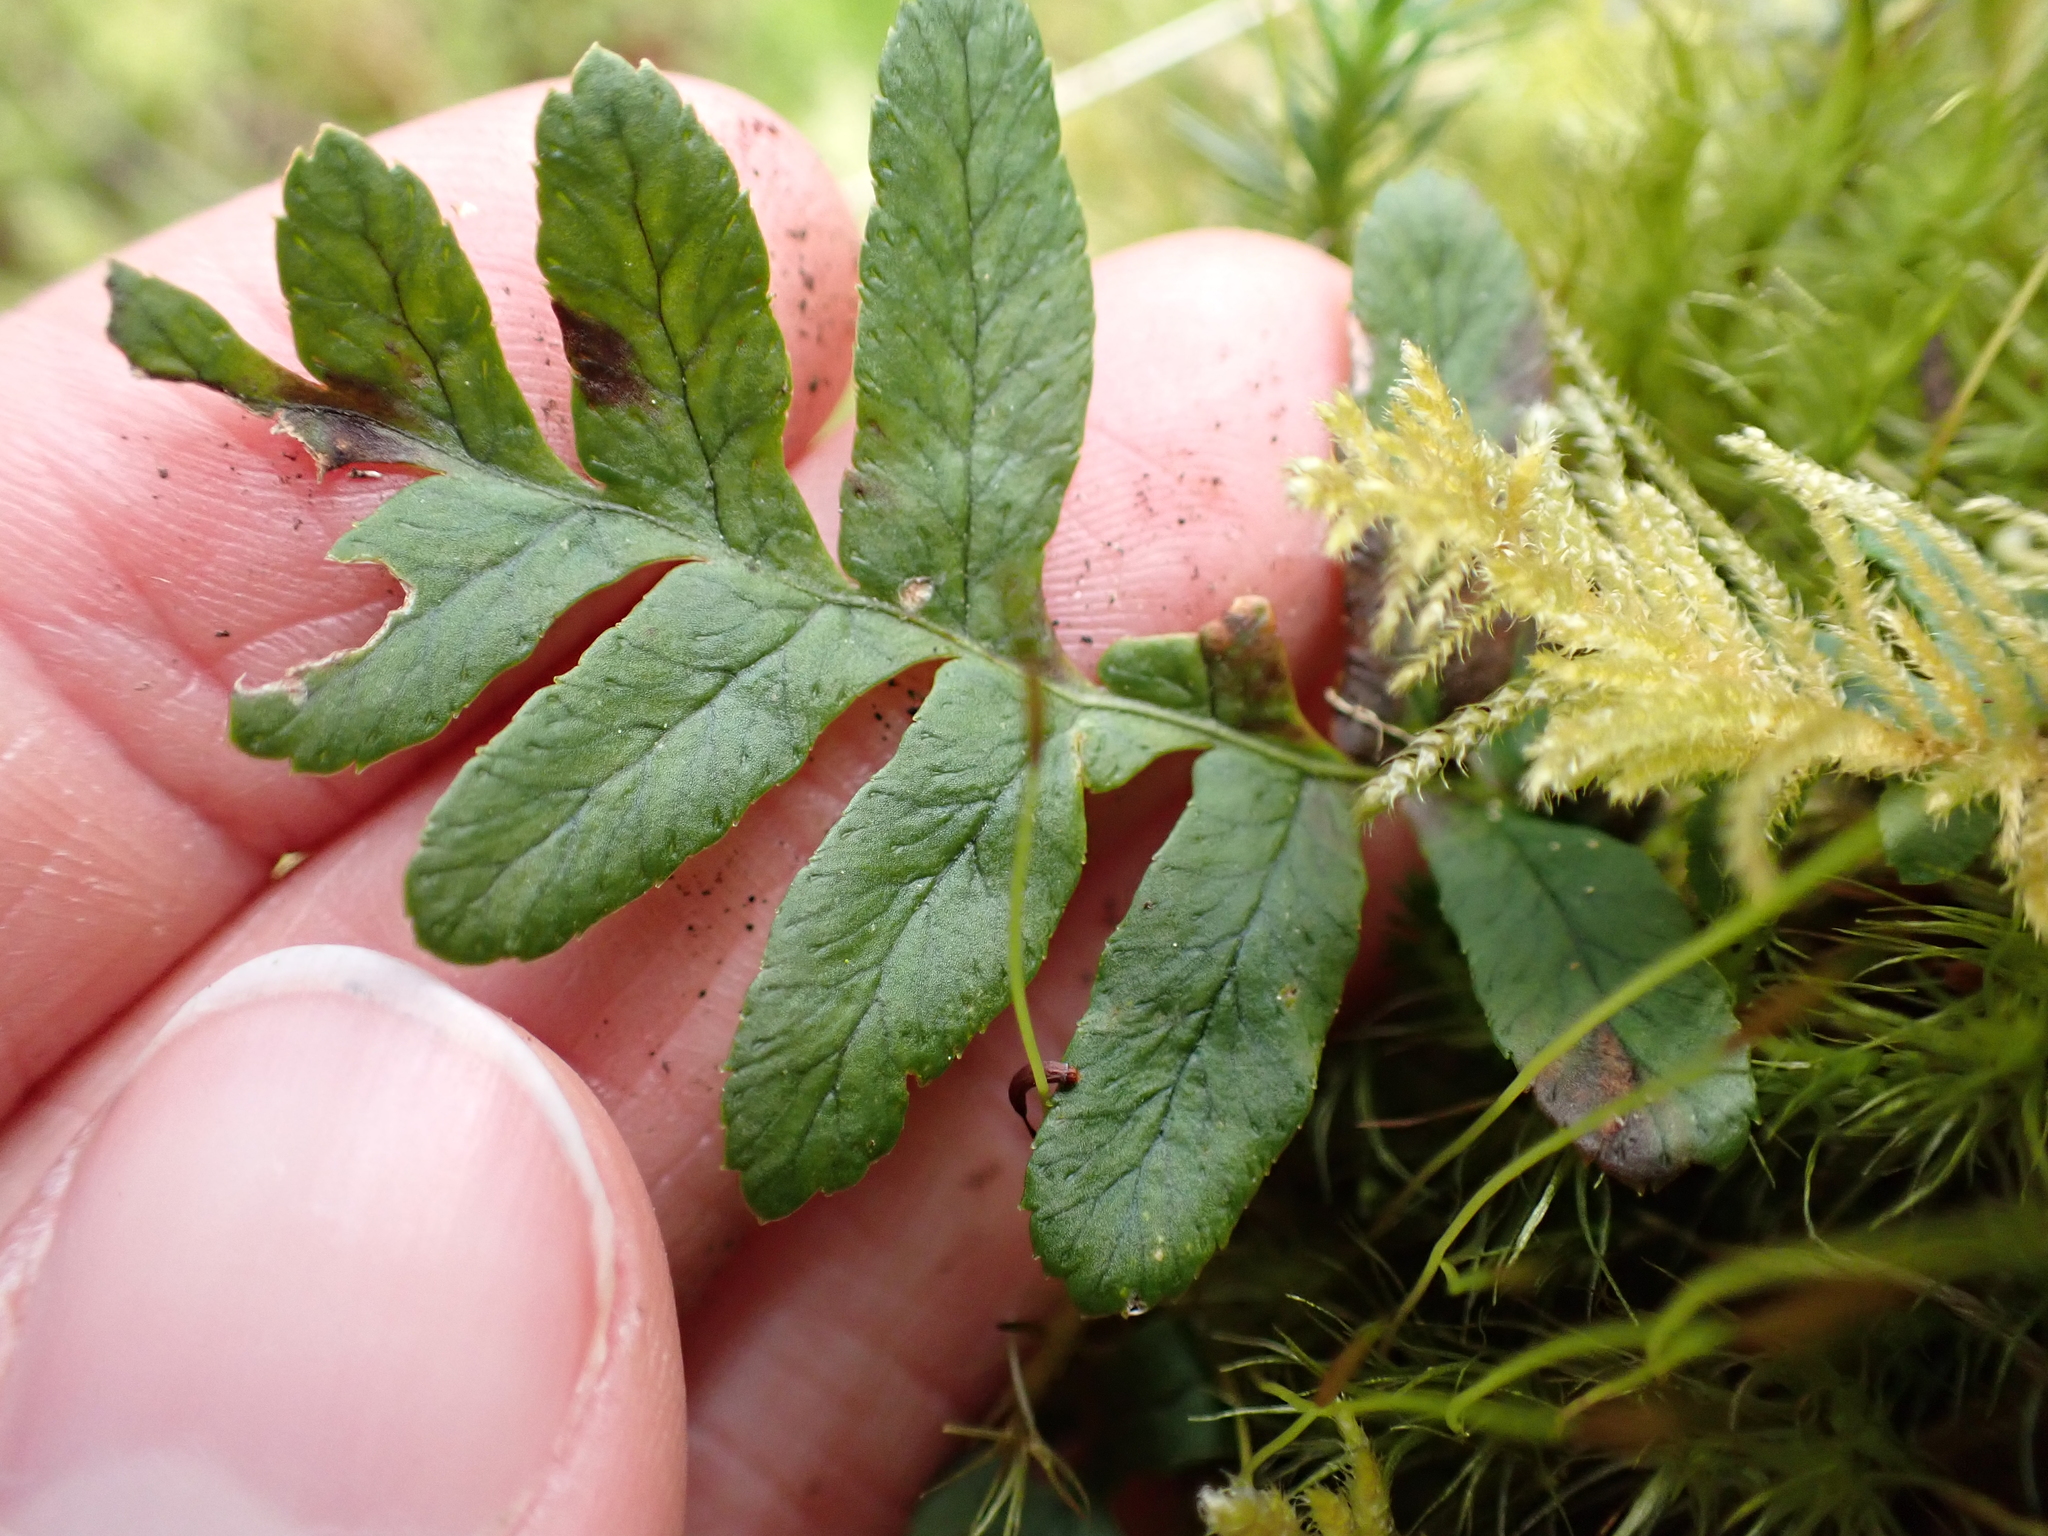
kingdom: Plantae
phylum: Tracheophyta
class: Polypodiopsida
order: Polypodiales
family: Polypodiaceae
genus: Polypodium
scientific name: Polypodium glycyrrhiza
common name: Licorice fern
